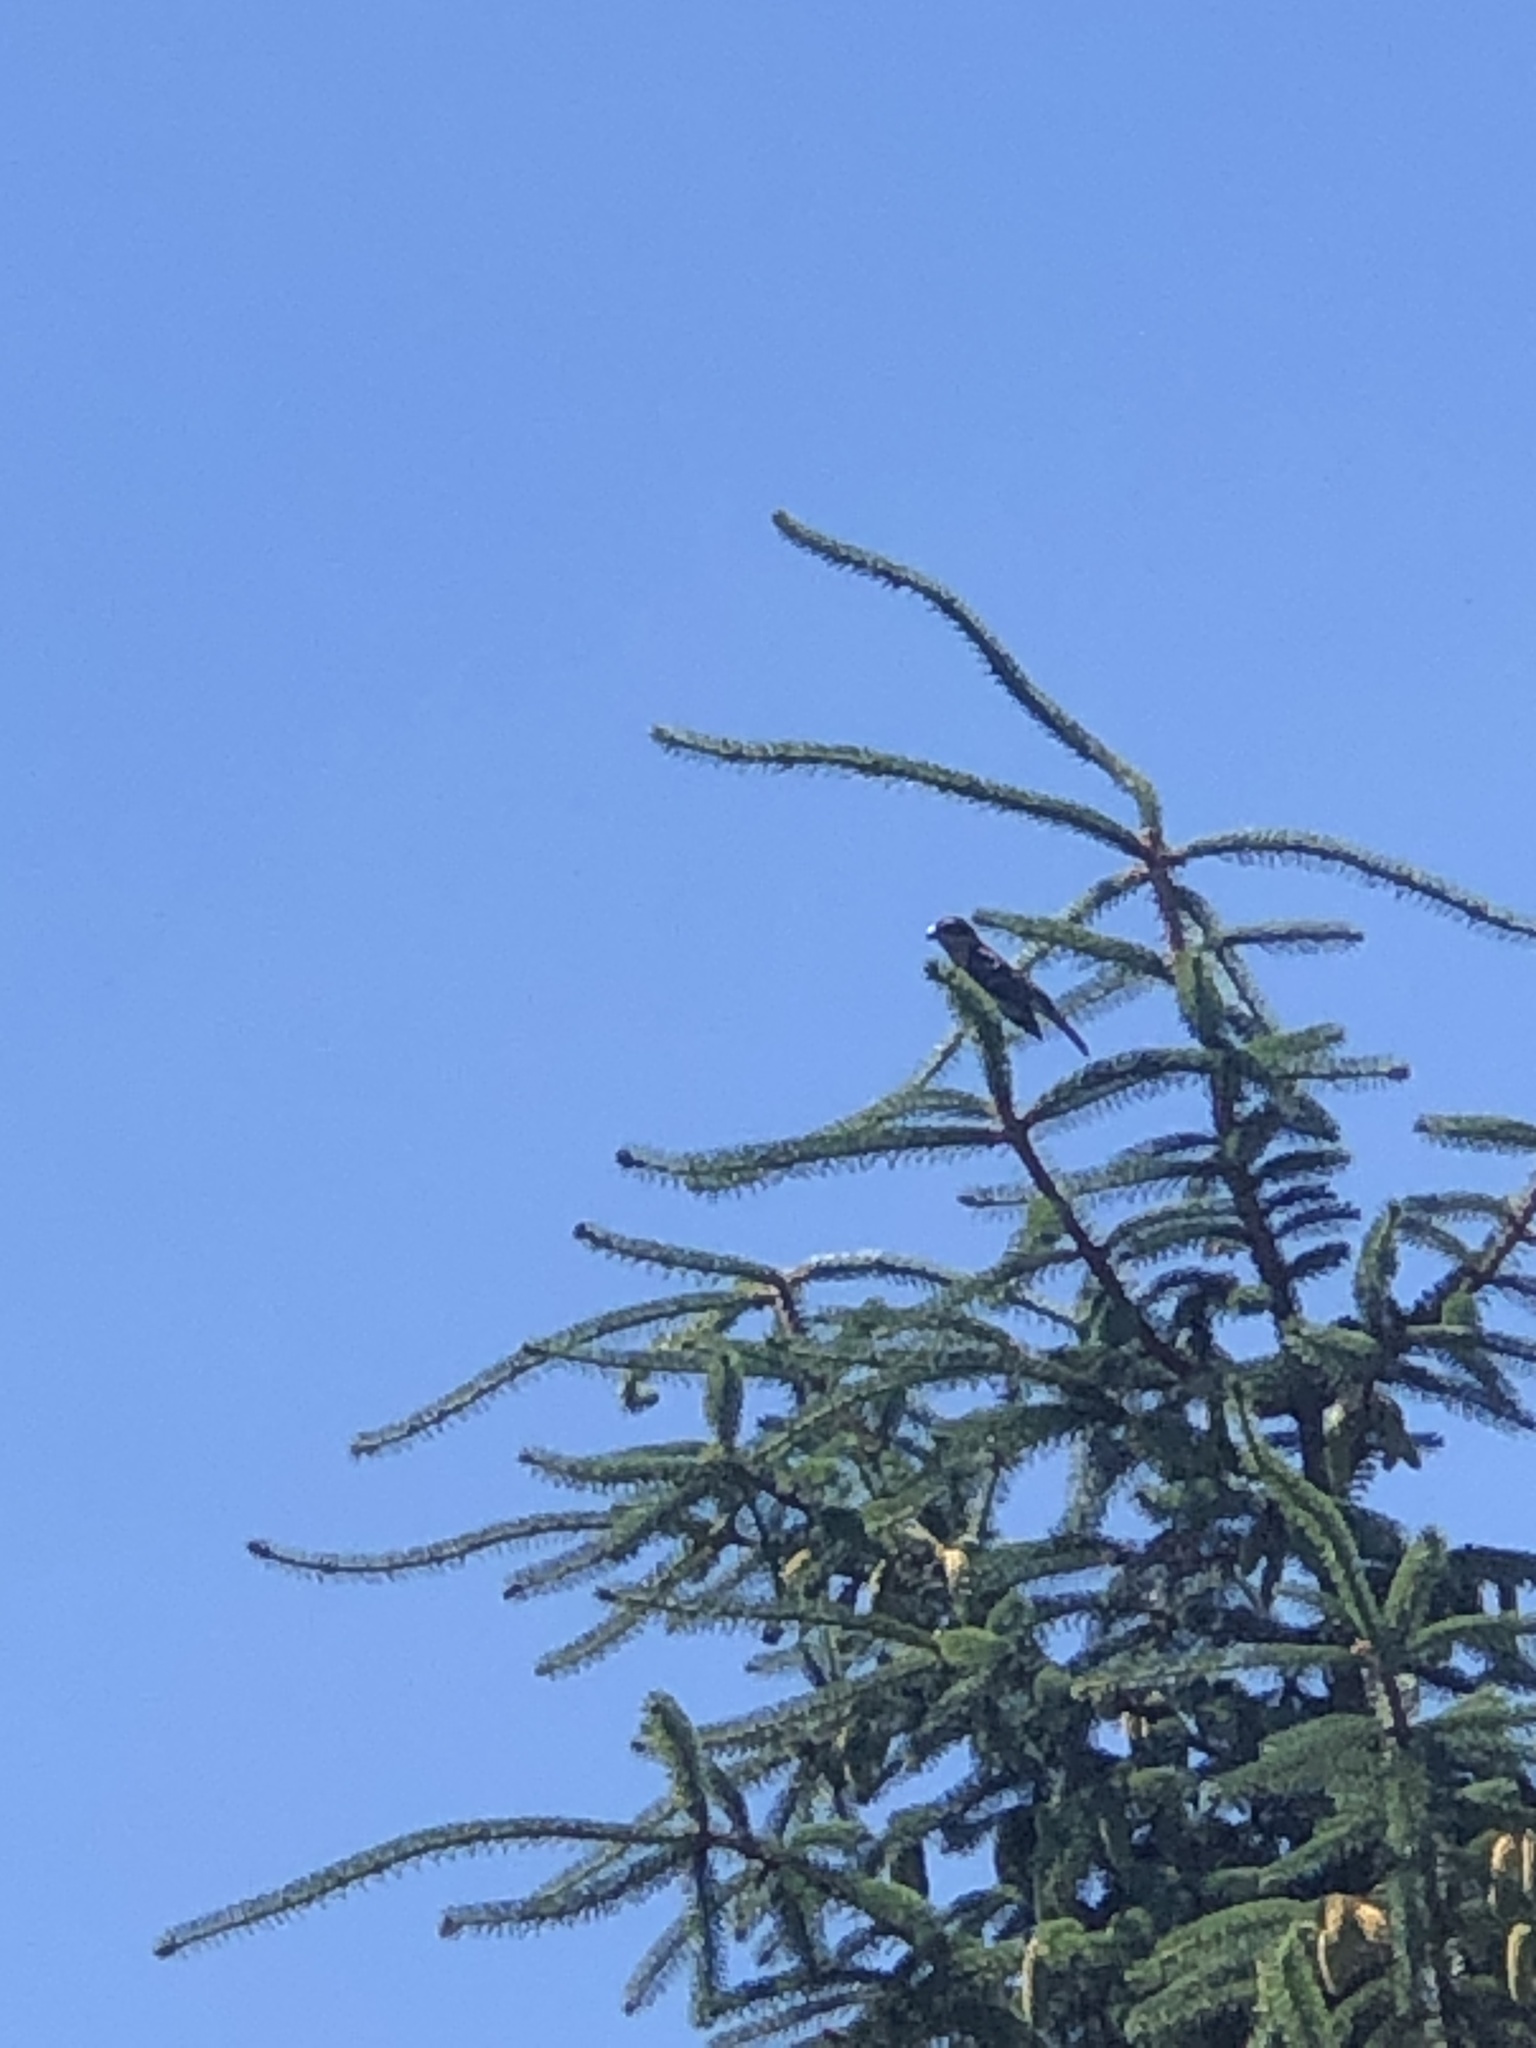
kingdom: Animalia
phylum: Chordata
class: Aves
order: Passeriformes
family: Cardinalidae
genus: Pheucticus
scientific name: Pheucticus melanocephalus
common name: Black-headed grosbeak
